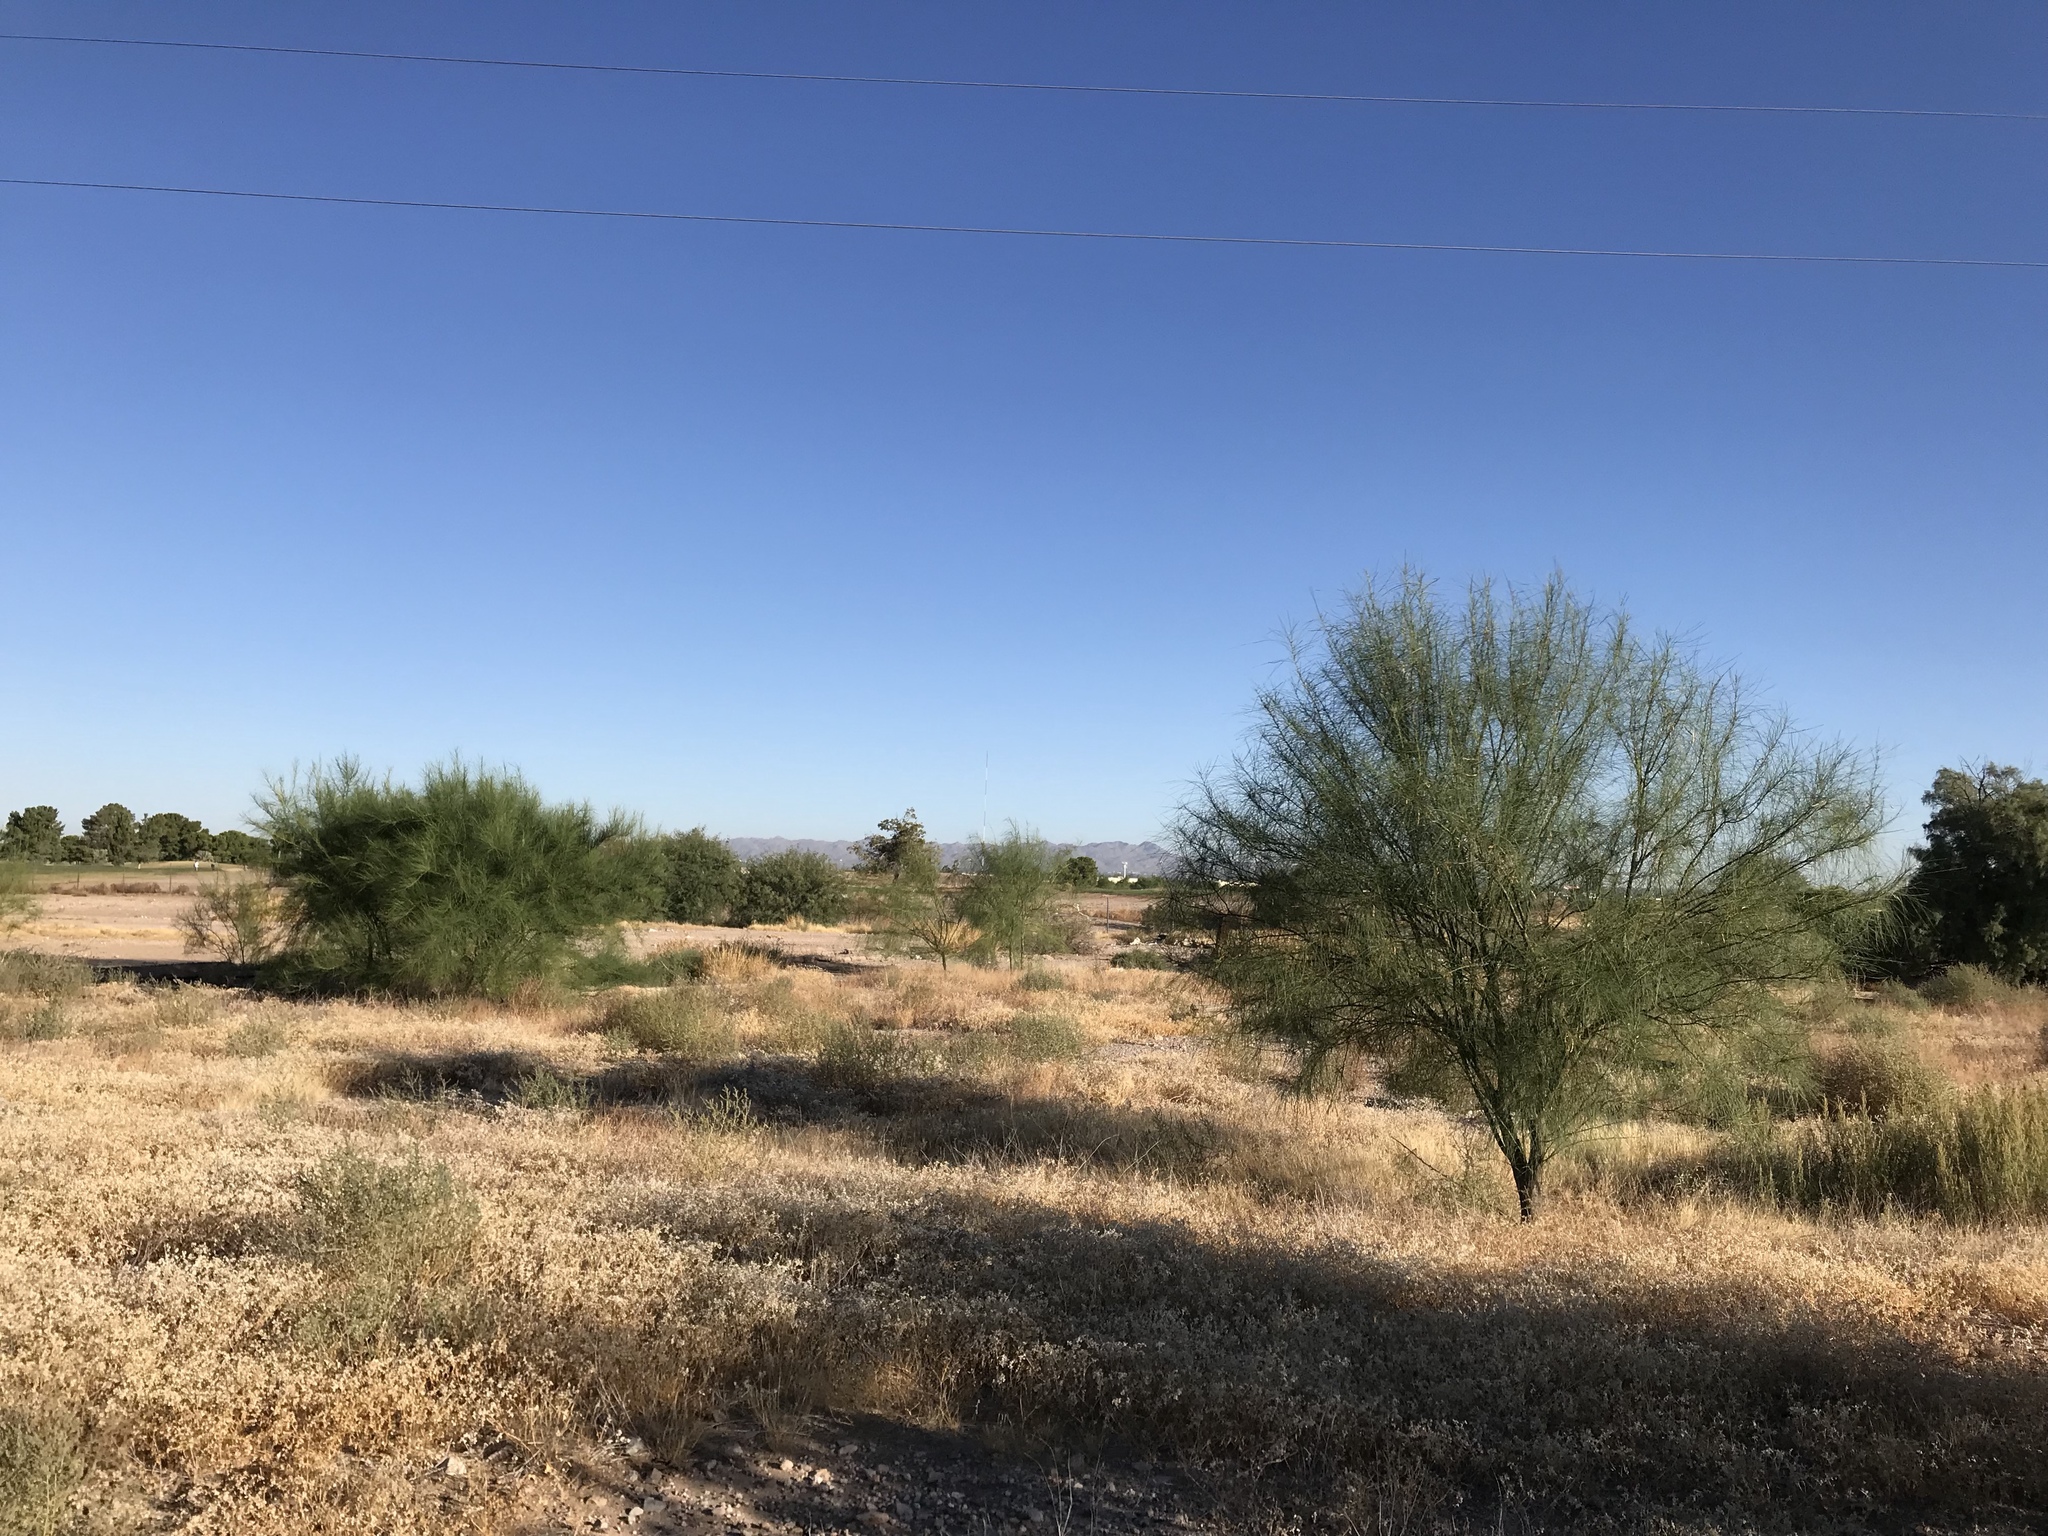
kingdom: Plantae
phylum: Tracheophyta
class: Magnoliopsida
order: Fabales
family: Fabaceae
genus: Parkinsonia
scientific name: Parkinsonia aculeata
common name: Jerusalem thorn
